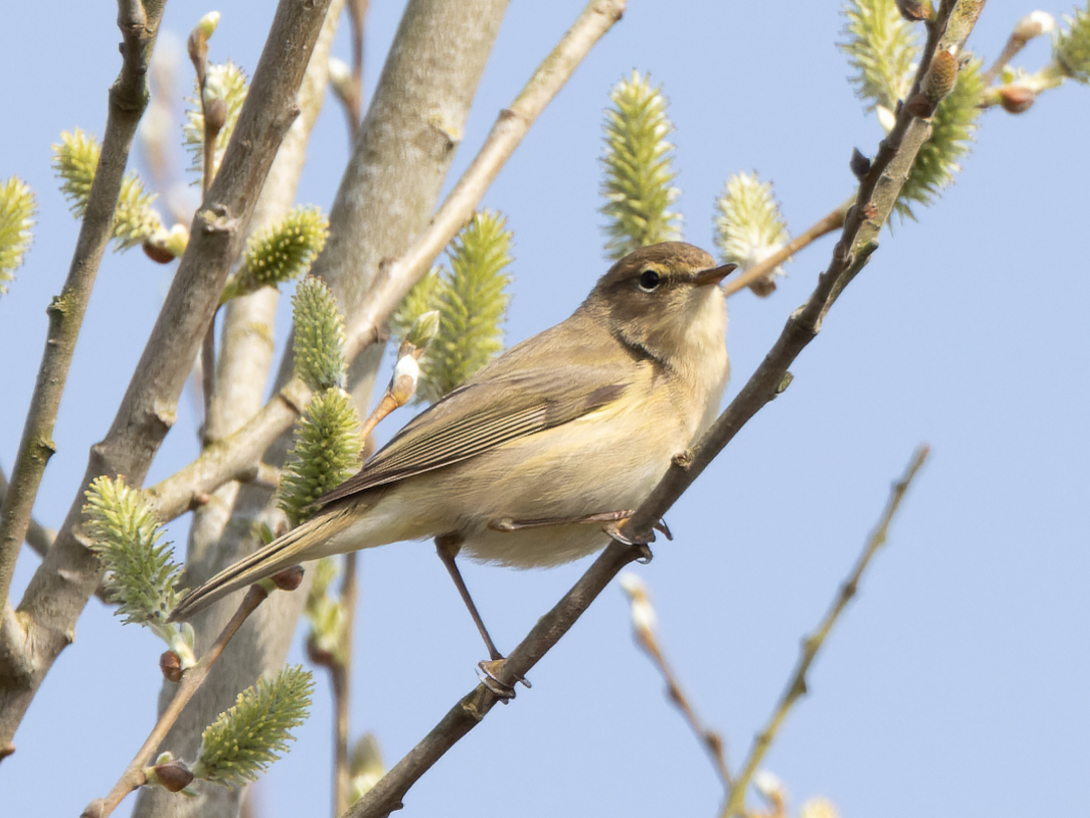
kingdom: Animalia
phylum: Chordata
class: Aves
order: Passeriformes
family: Phylloscopidae
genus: Phylloscopus
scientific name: Phylloscopus collybita
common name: Common chiffchaff
